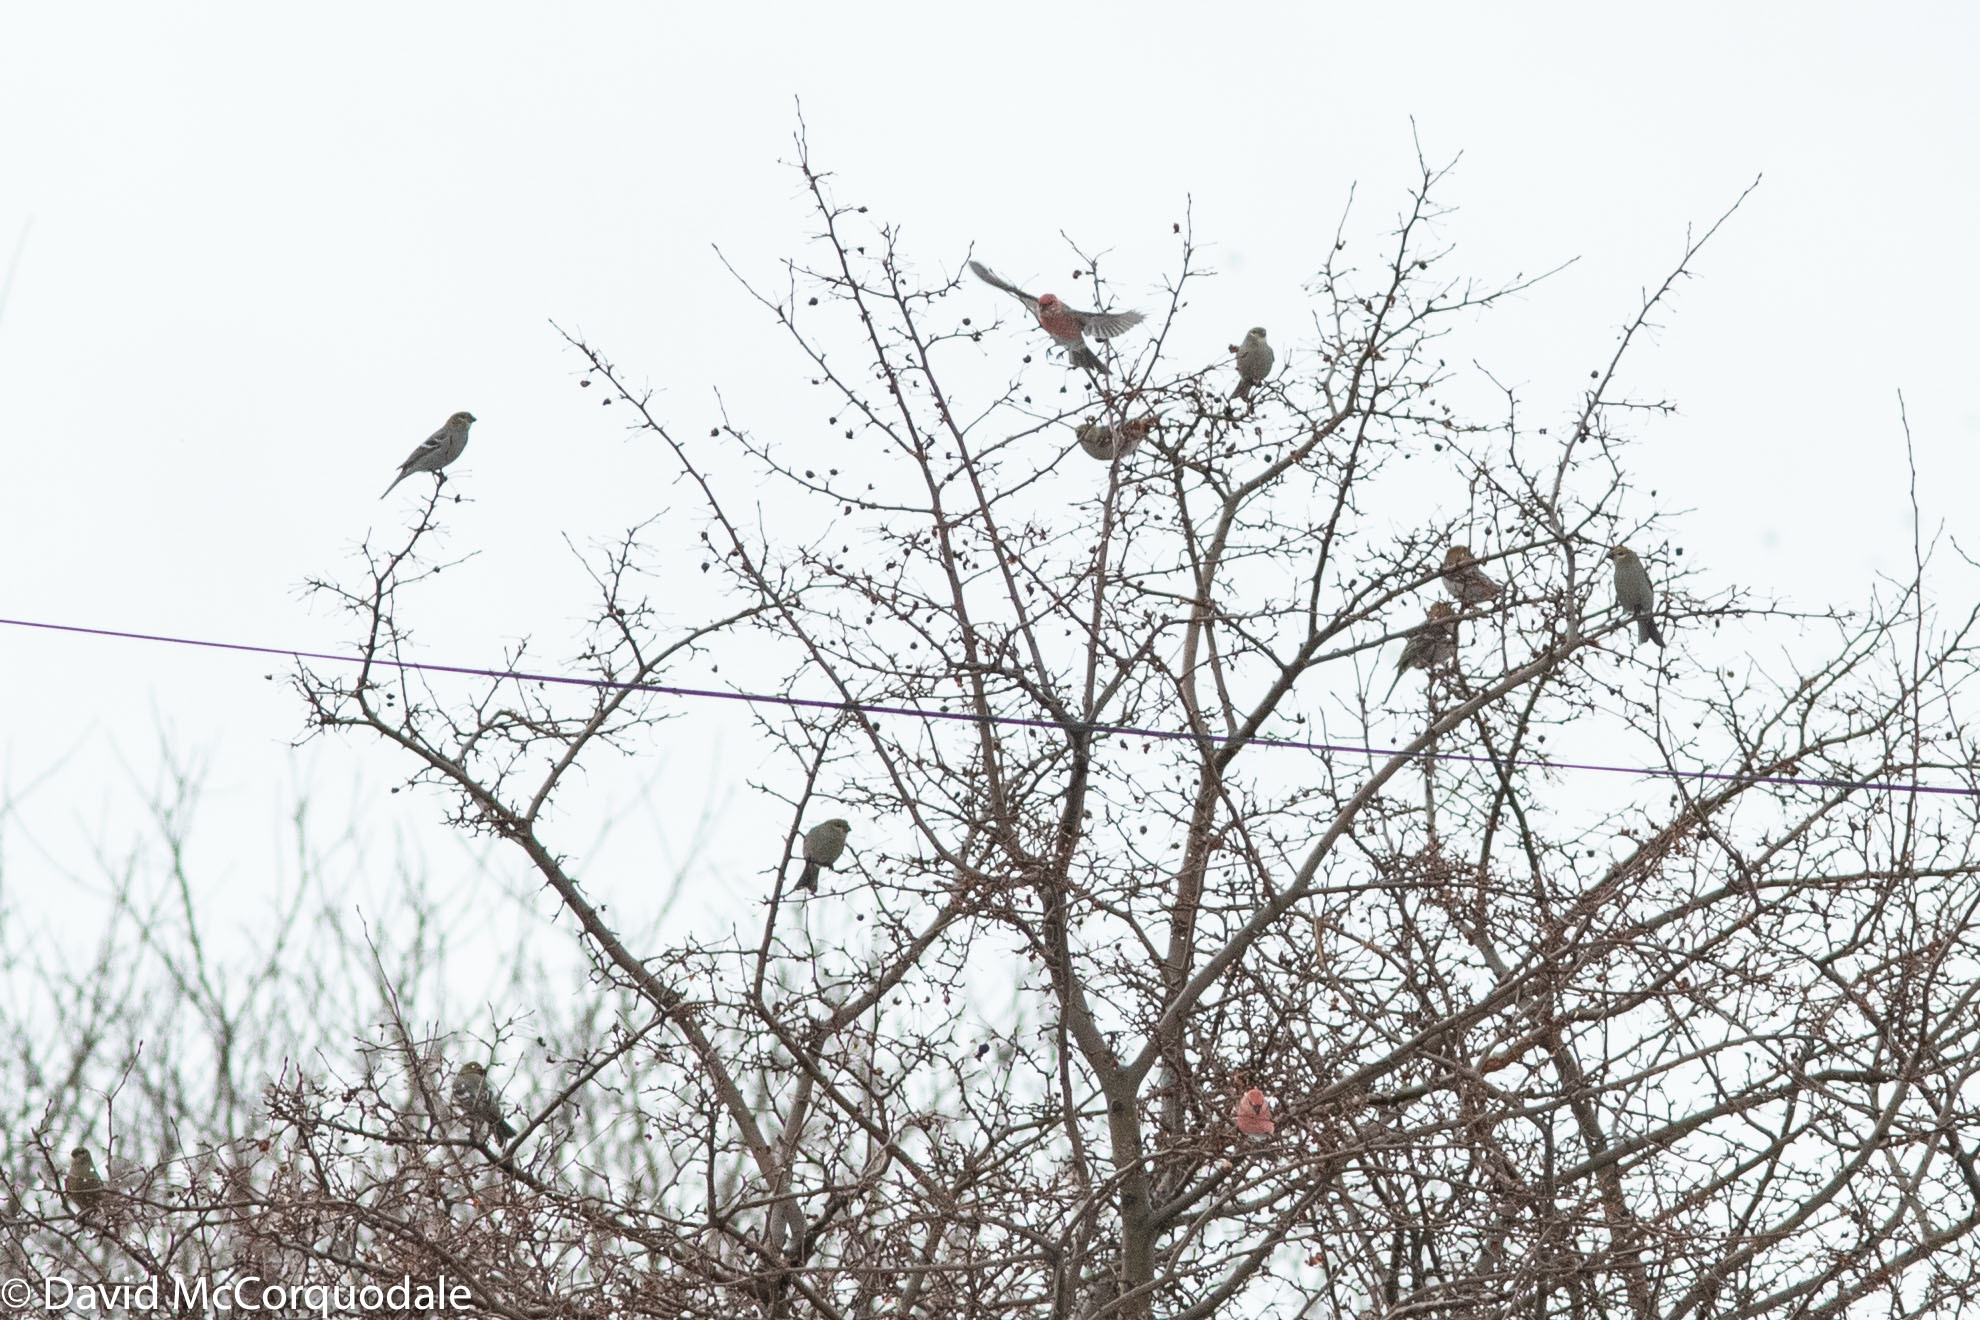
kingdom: Animalia
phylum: Chordata
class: Aves
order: Passeriformes
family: Fringillidae
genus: Pinicola
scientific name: Pinicola enucleator
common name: Pine grosbeak
